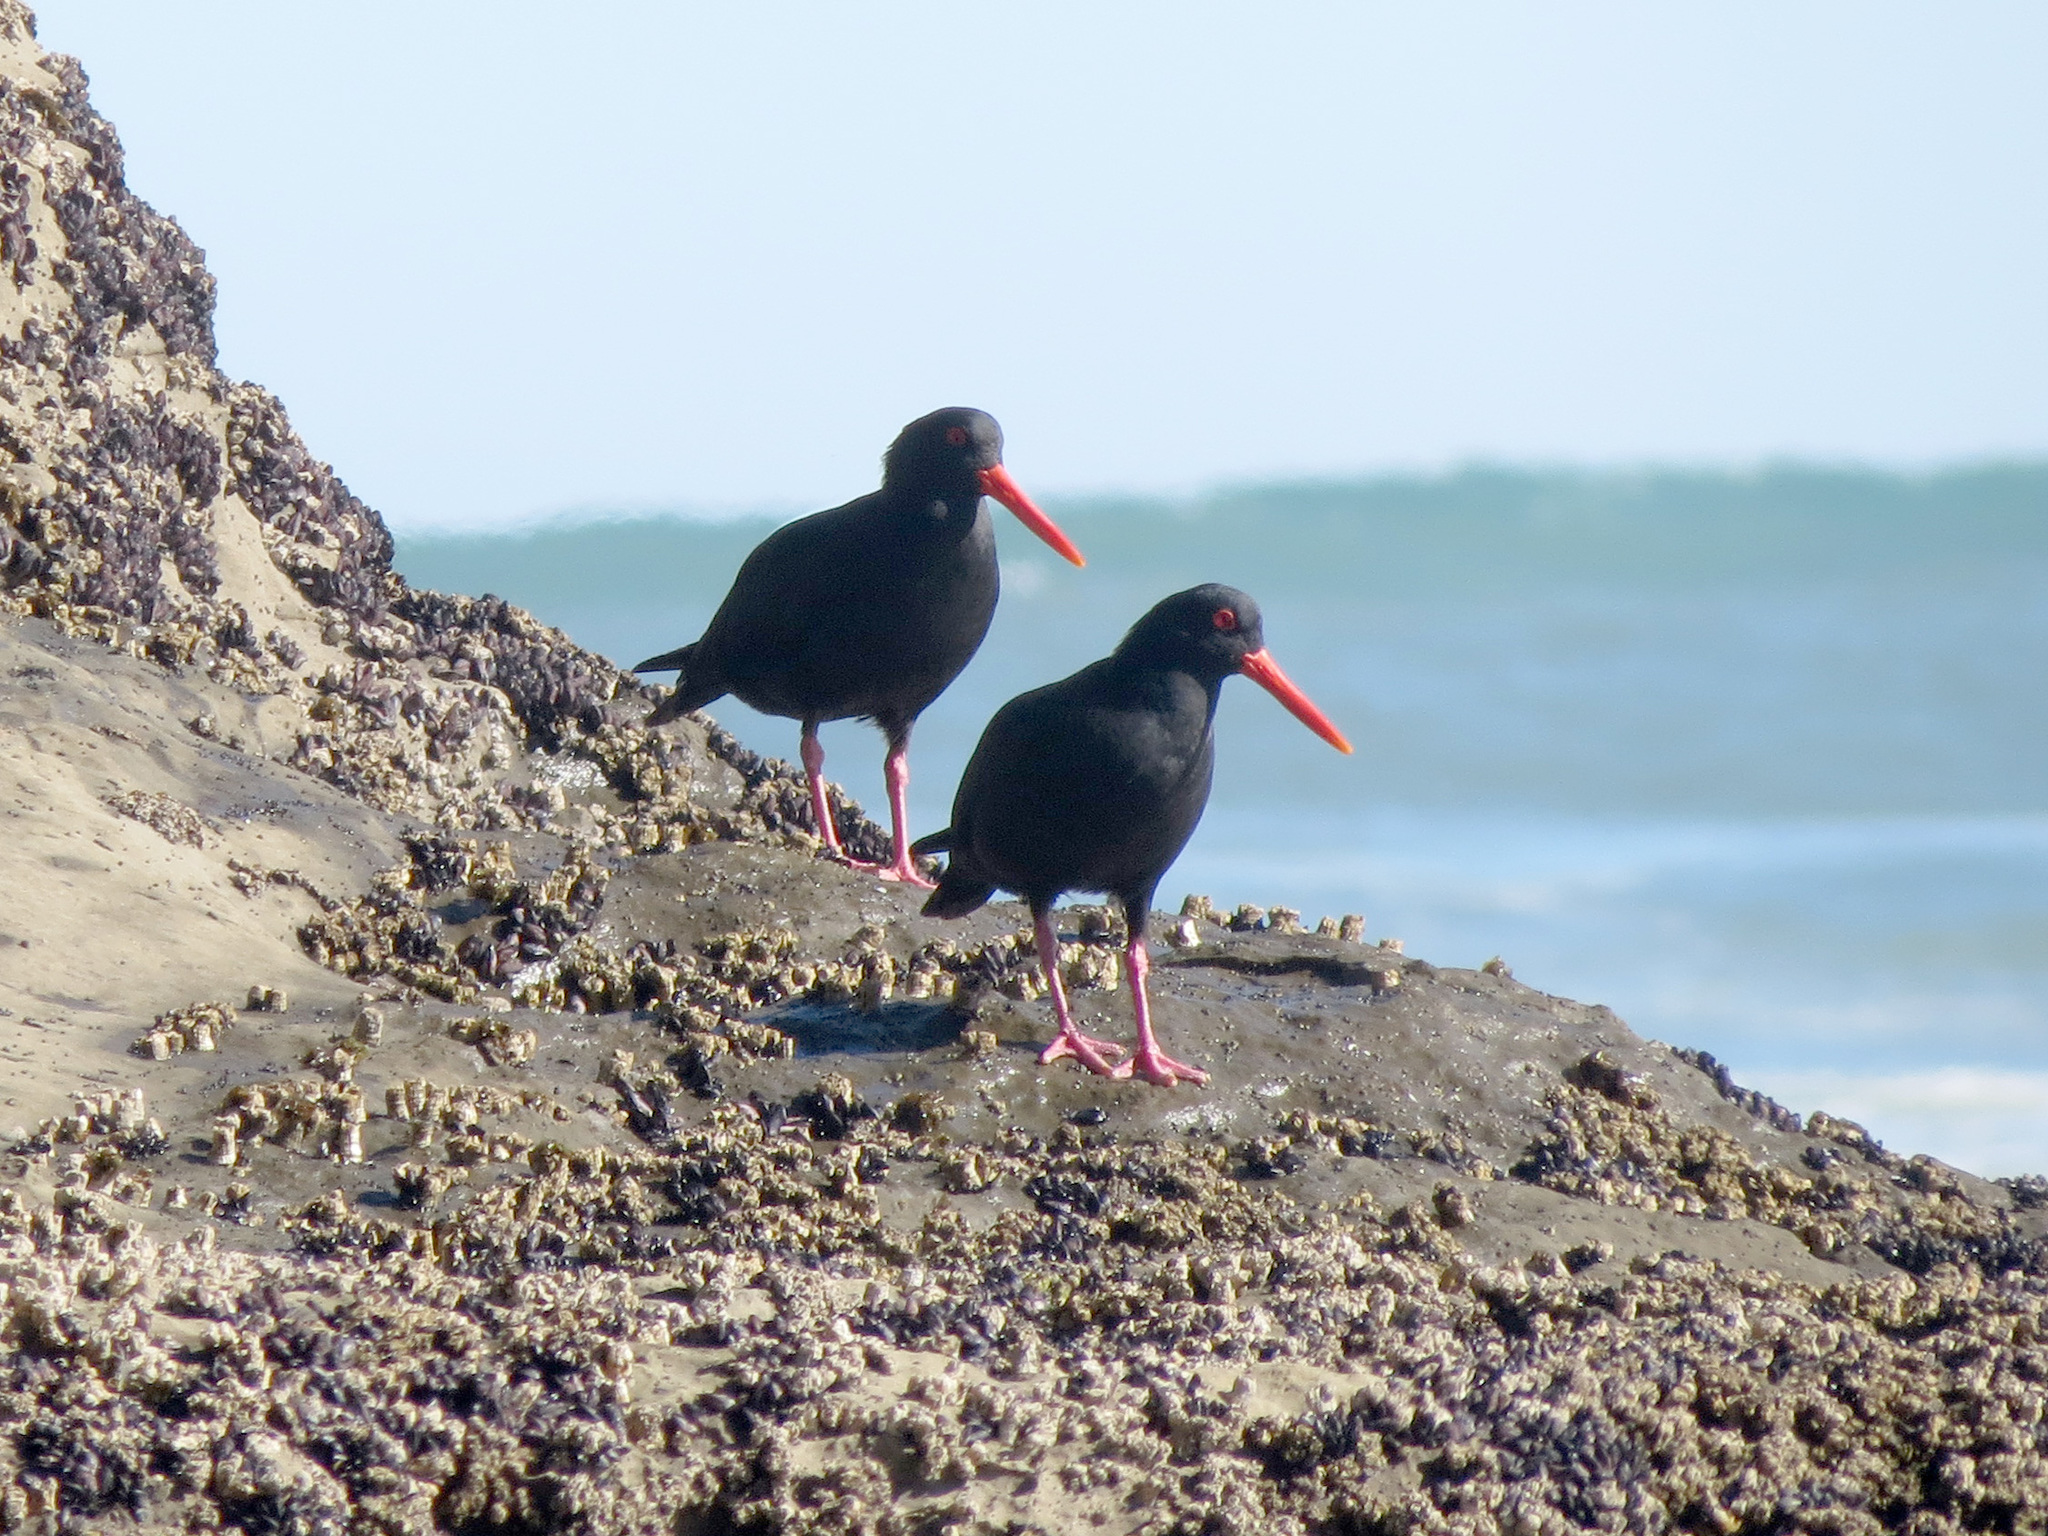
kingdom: Animalia
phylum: Chordata
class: Aves
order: Charadriiformes
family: Haematopodidae
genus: Haematopus
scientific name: Haematopus unicolor
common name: Variable oystercatcher
